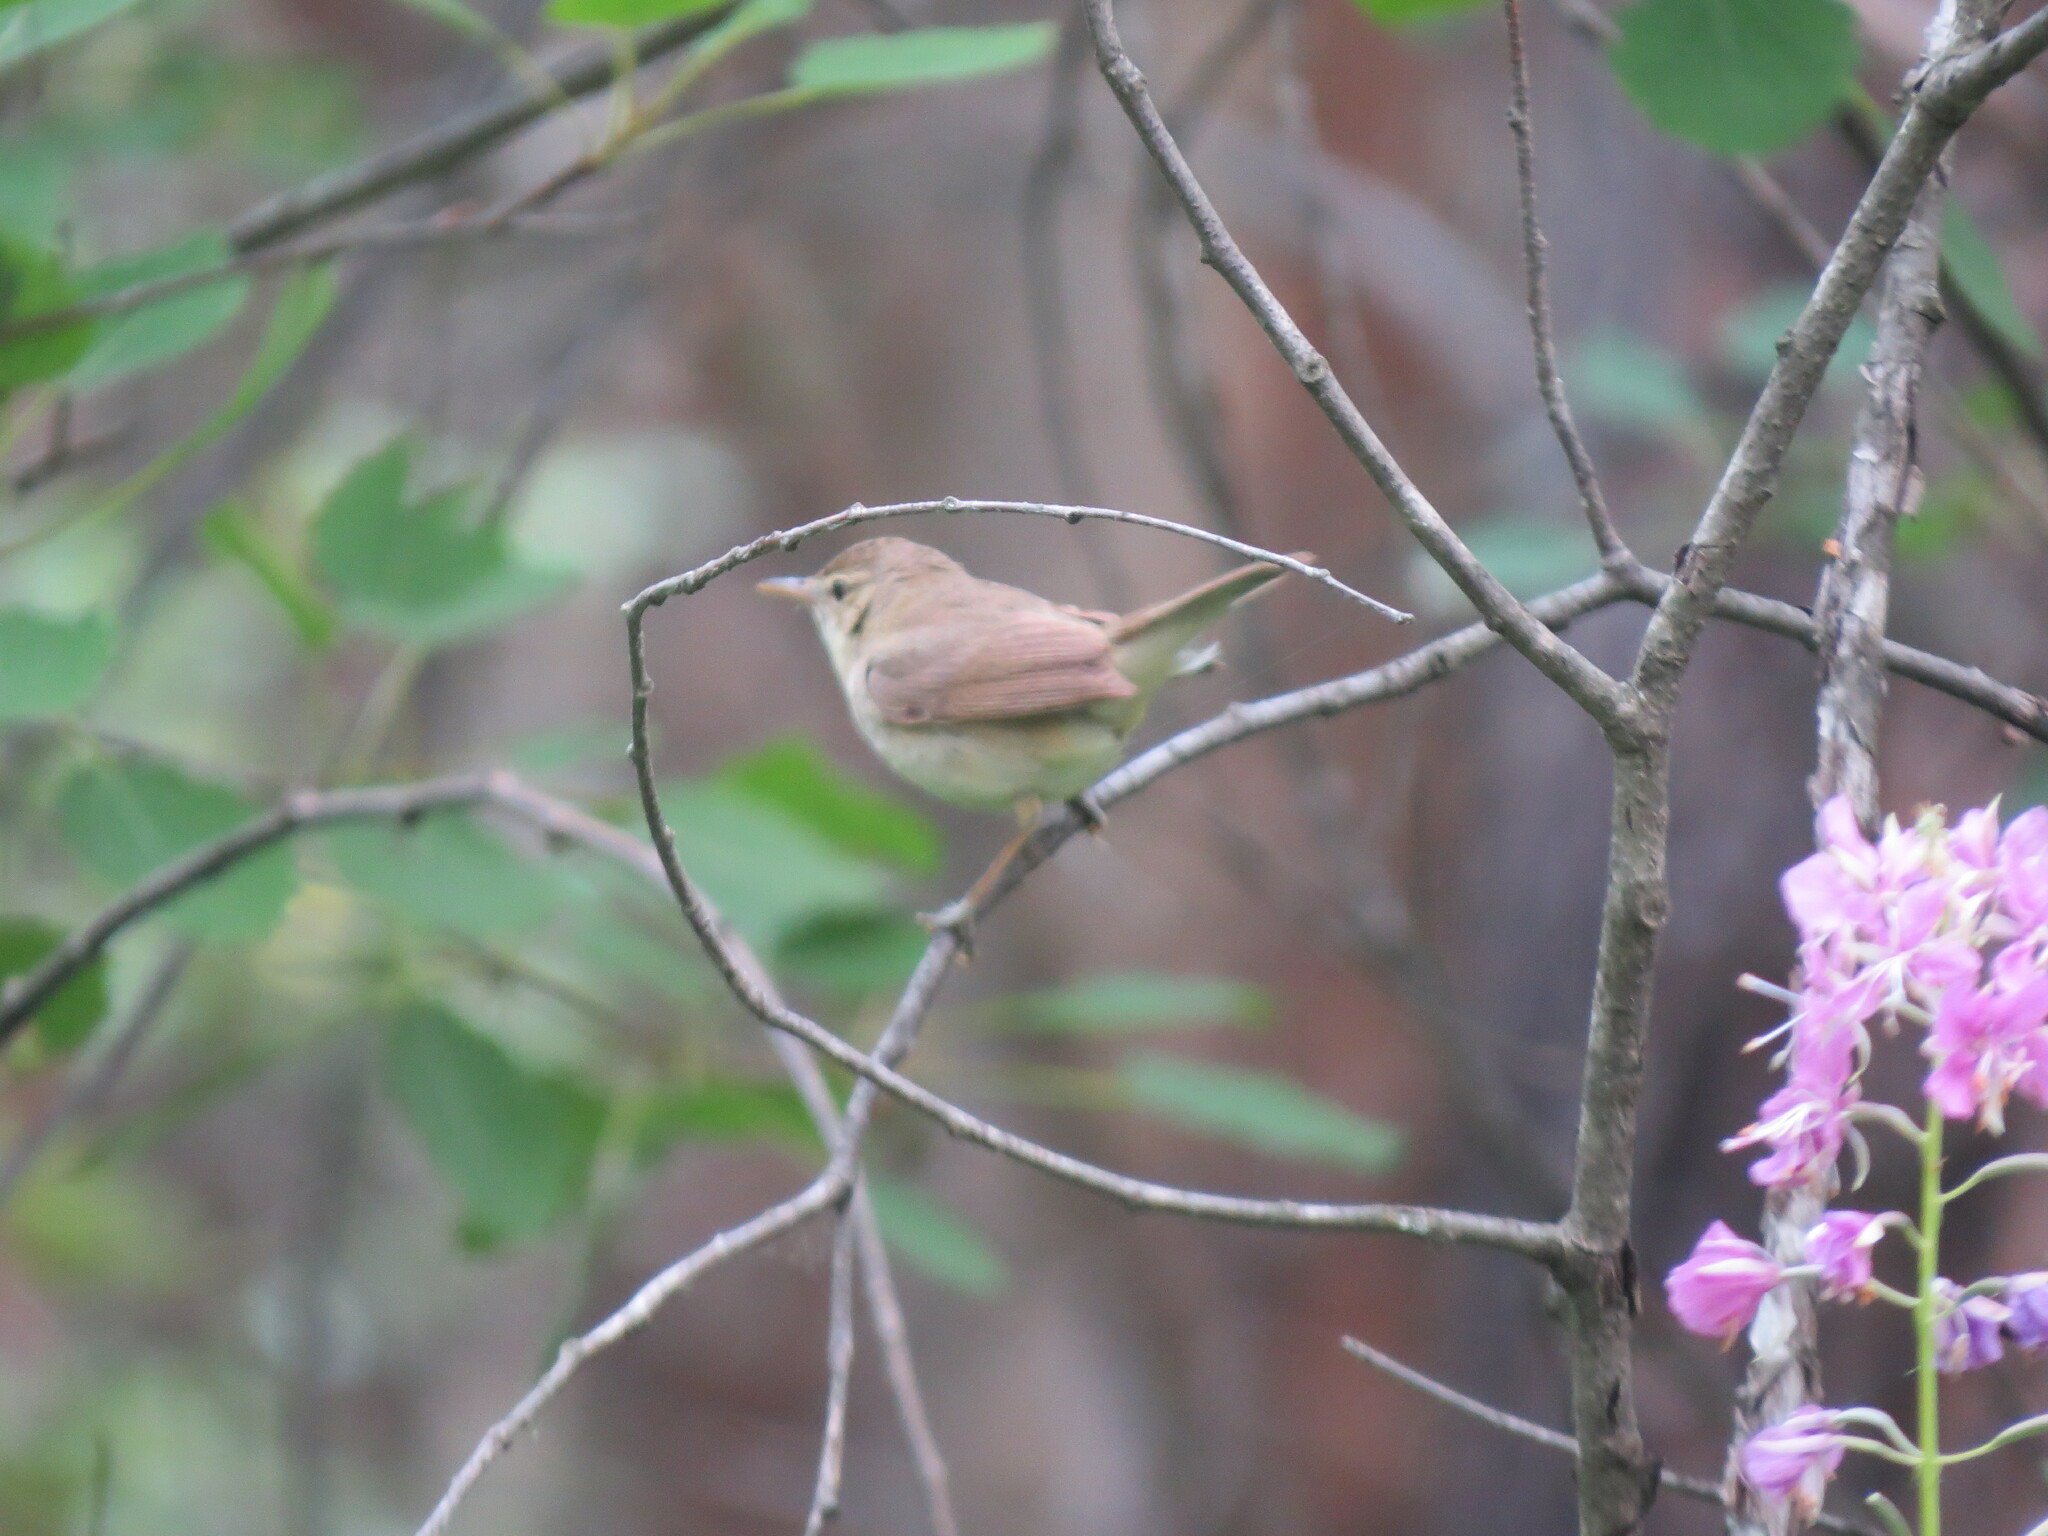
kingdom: Animalia
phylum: Chordata
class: Aves
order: Passeriformes
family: Acrocephalidae
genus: Acrocephalus
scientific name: Acrocephalus dumetorum
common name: Blyth's reed warbler
